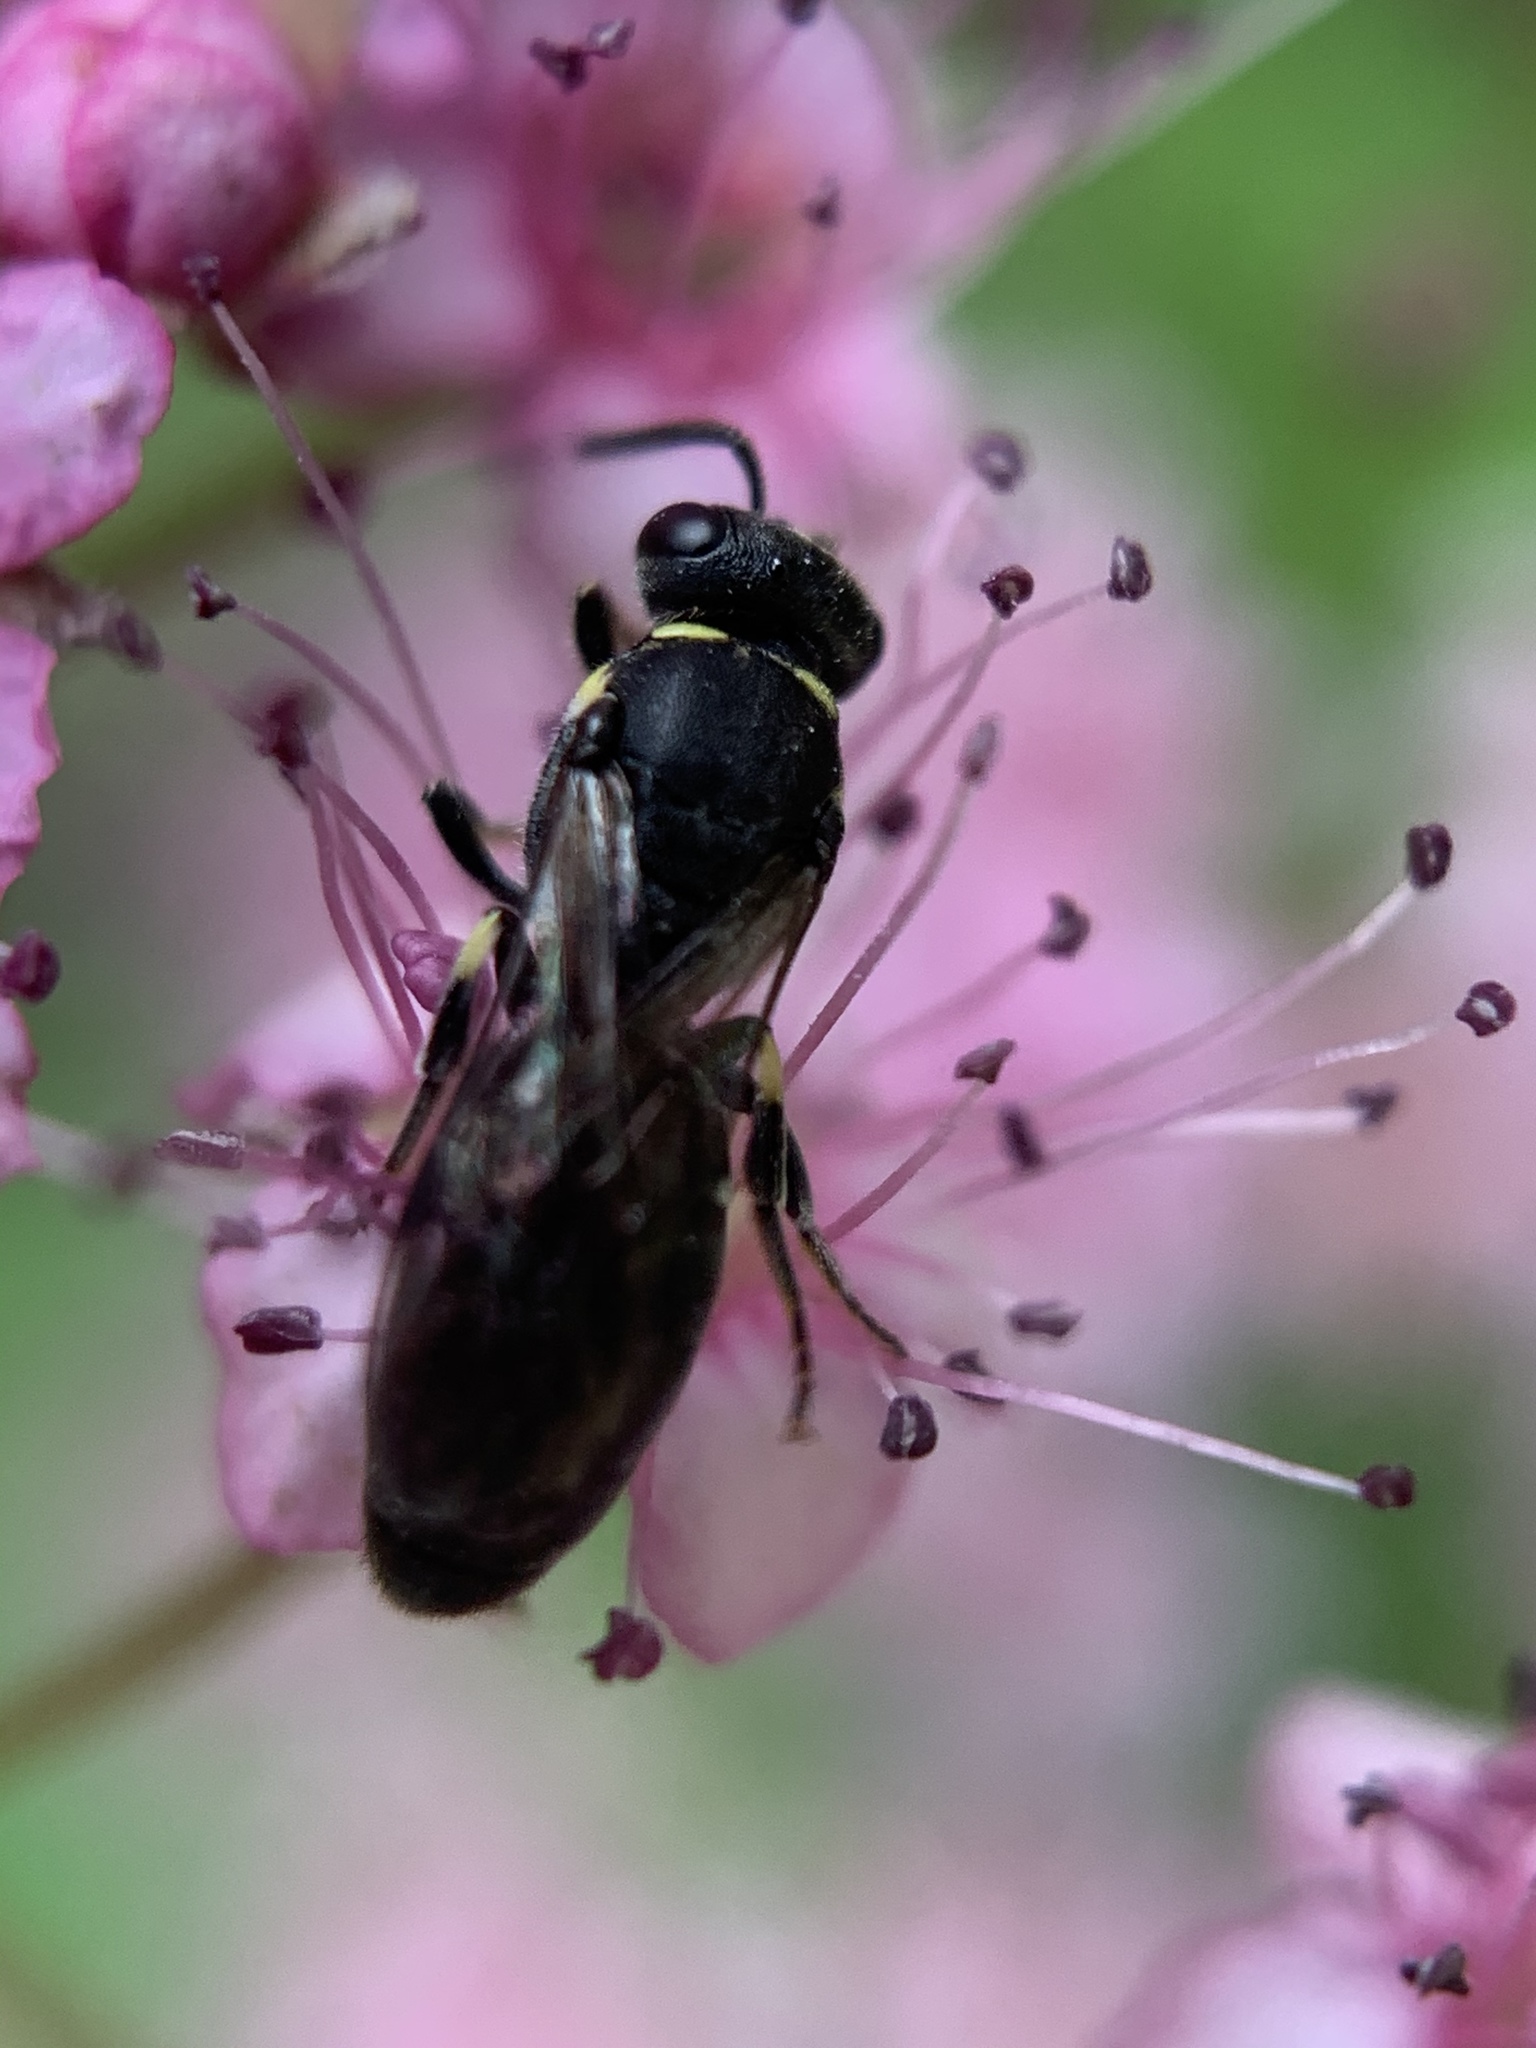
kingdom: Animalia
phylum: Arthropoda
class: Insecta
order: Hymenoptera
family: Colletidae
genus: Hylaeus
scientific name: Hylaeus modestus
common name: Yellow-faced bee
